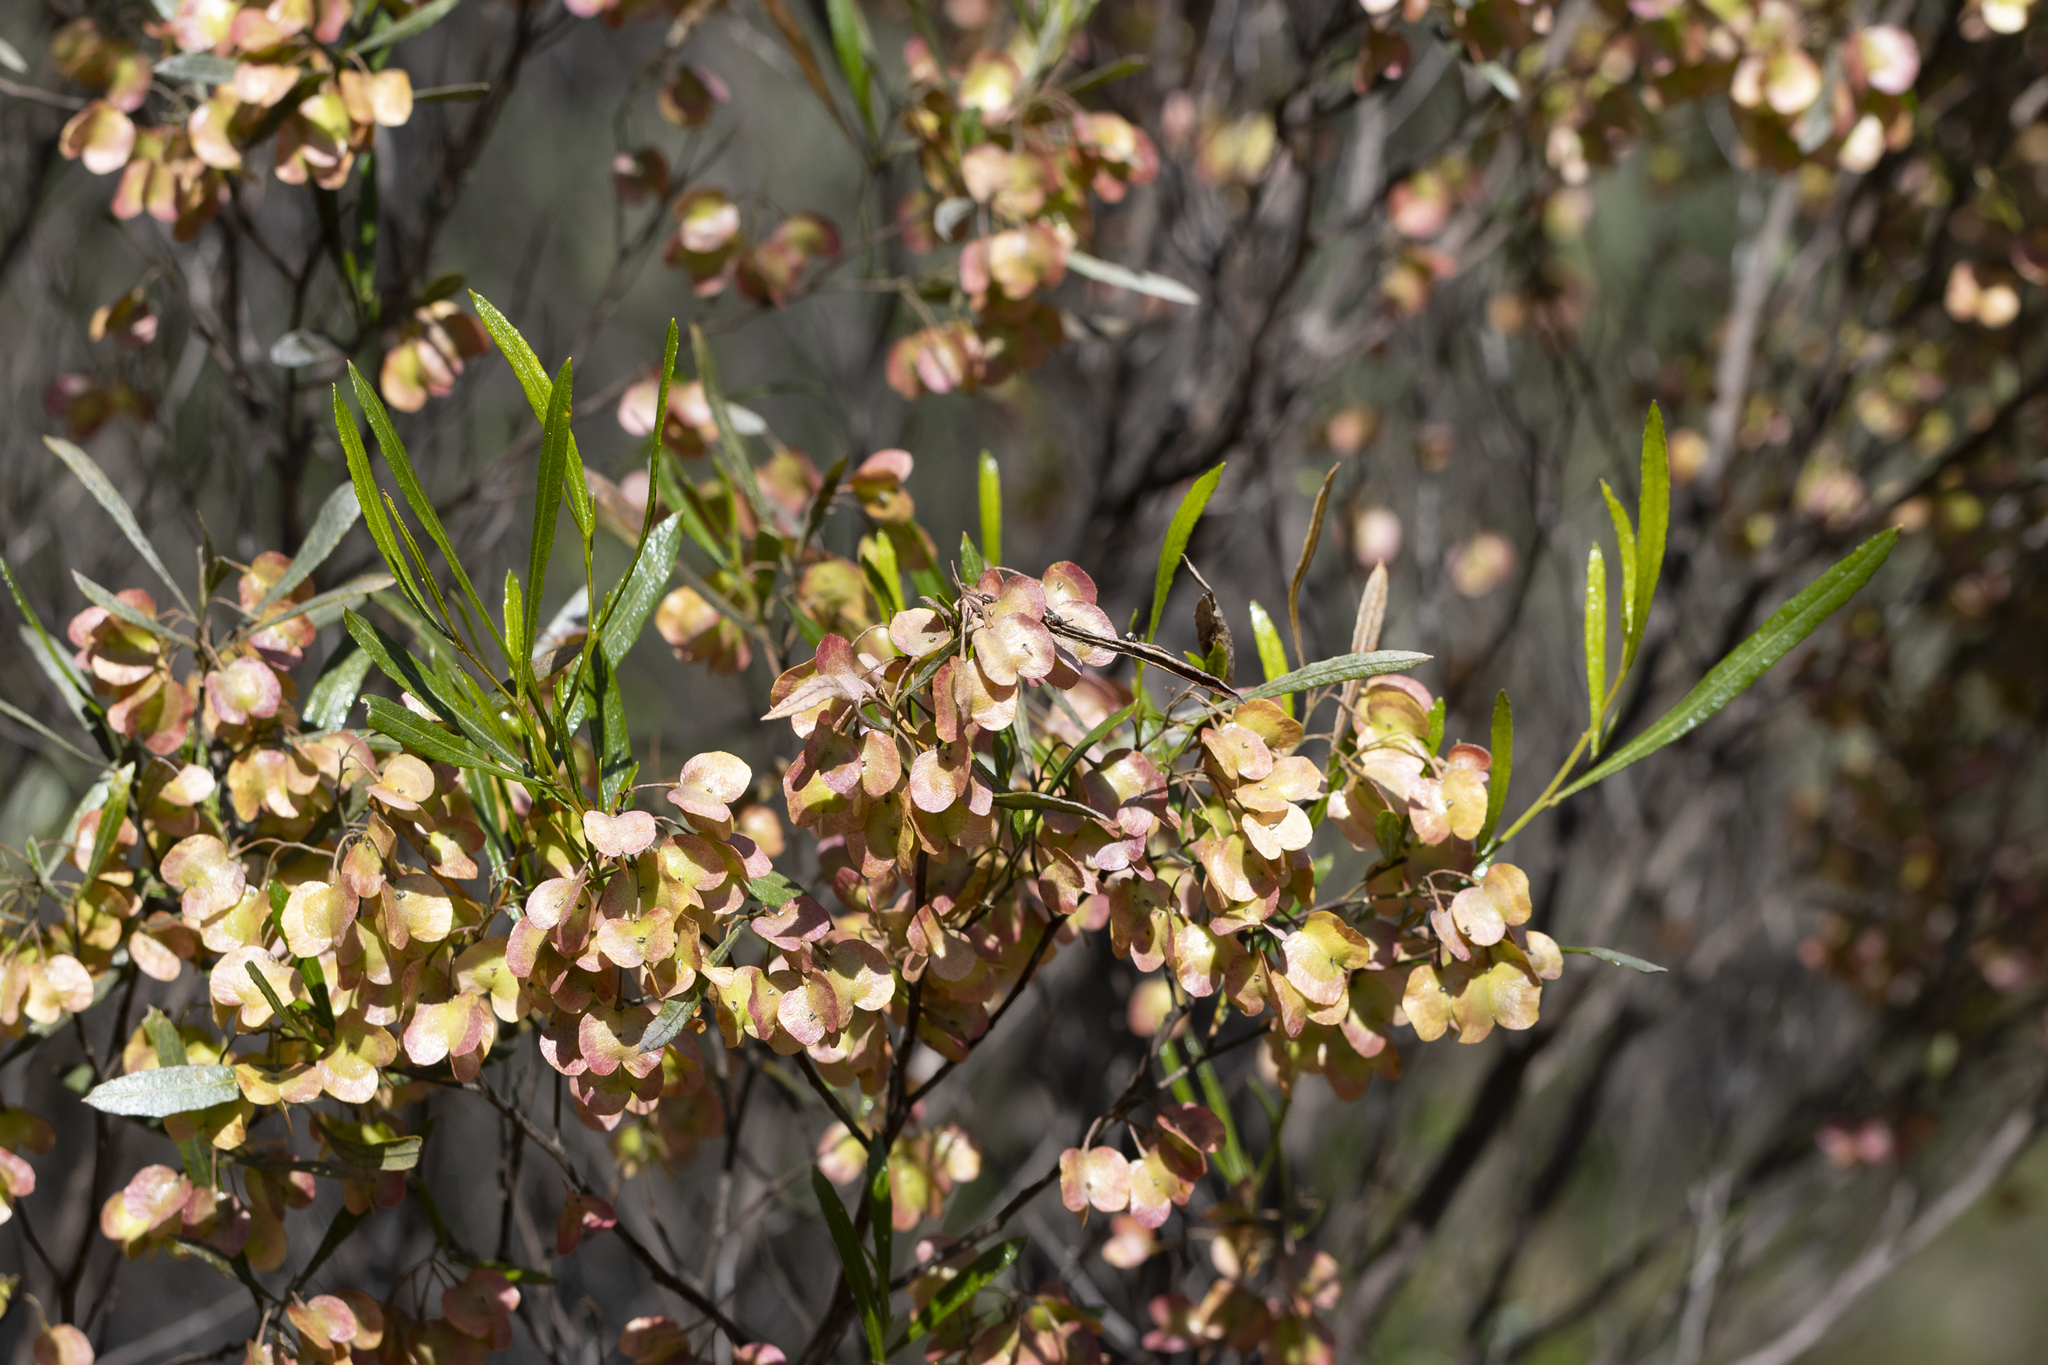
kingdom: Plantae
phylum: Tracheophyta
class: Magnoliopsida
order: Sapindales
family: Sapindaceae
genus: Dodonaea
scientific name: Dodonaea viscosa
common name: Hopbush
